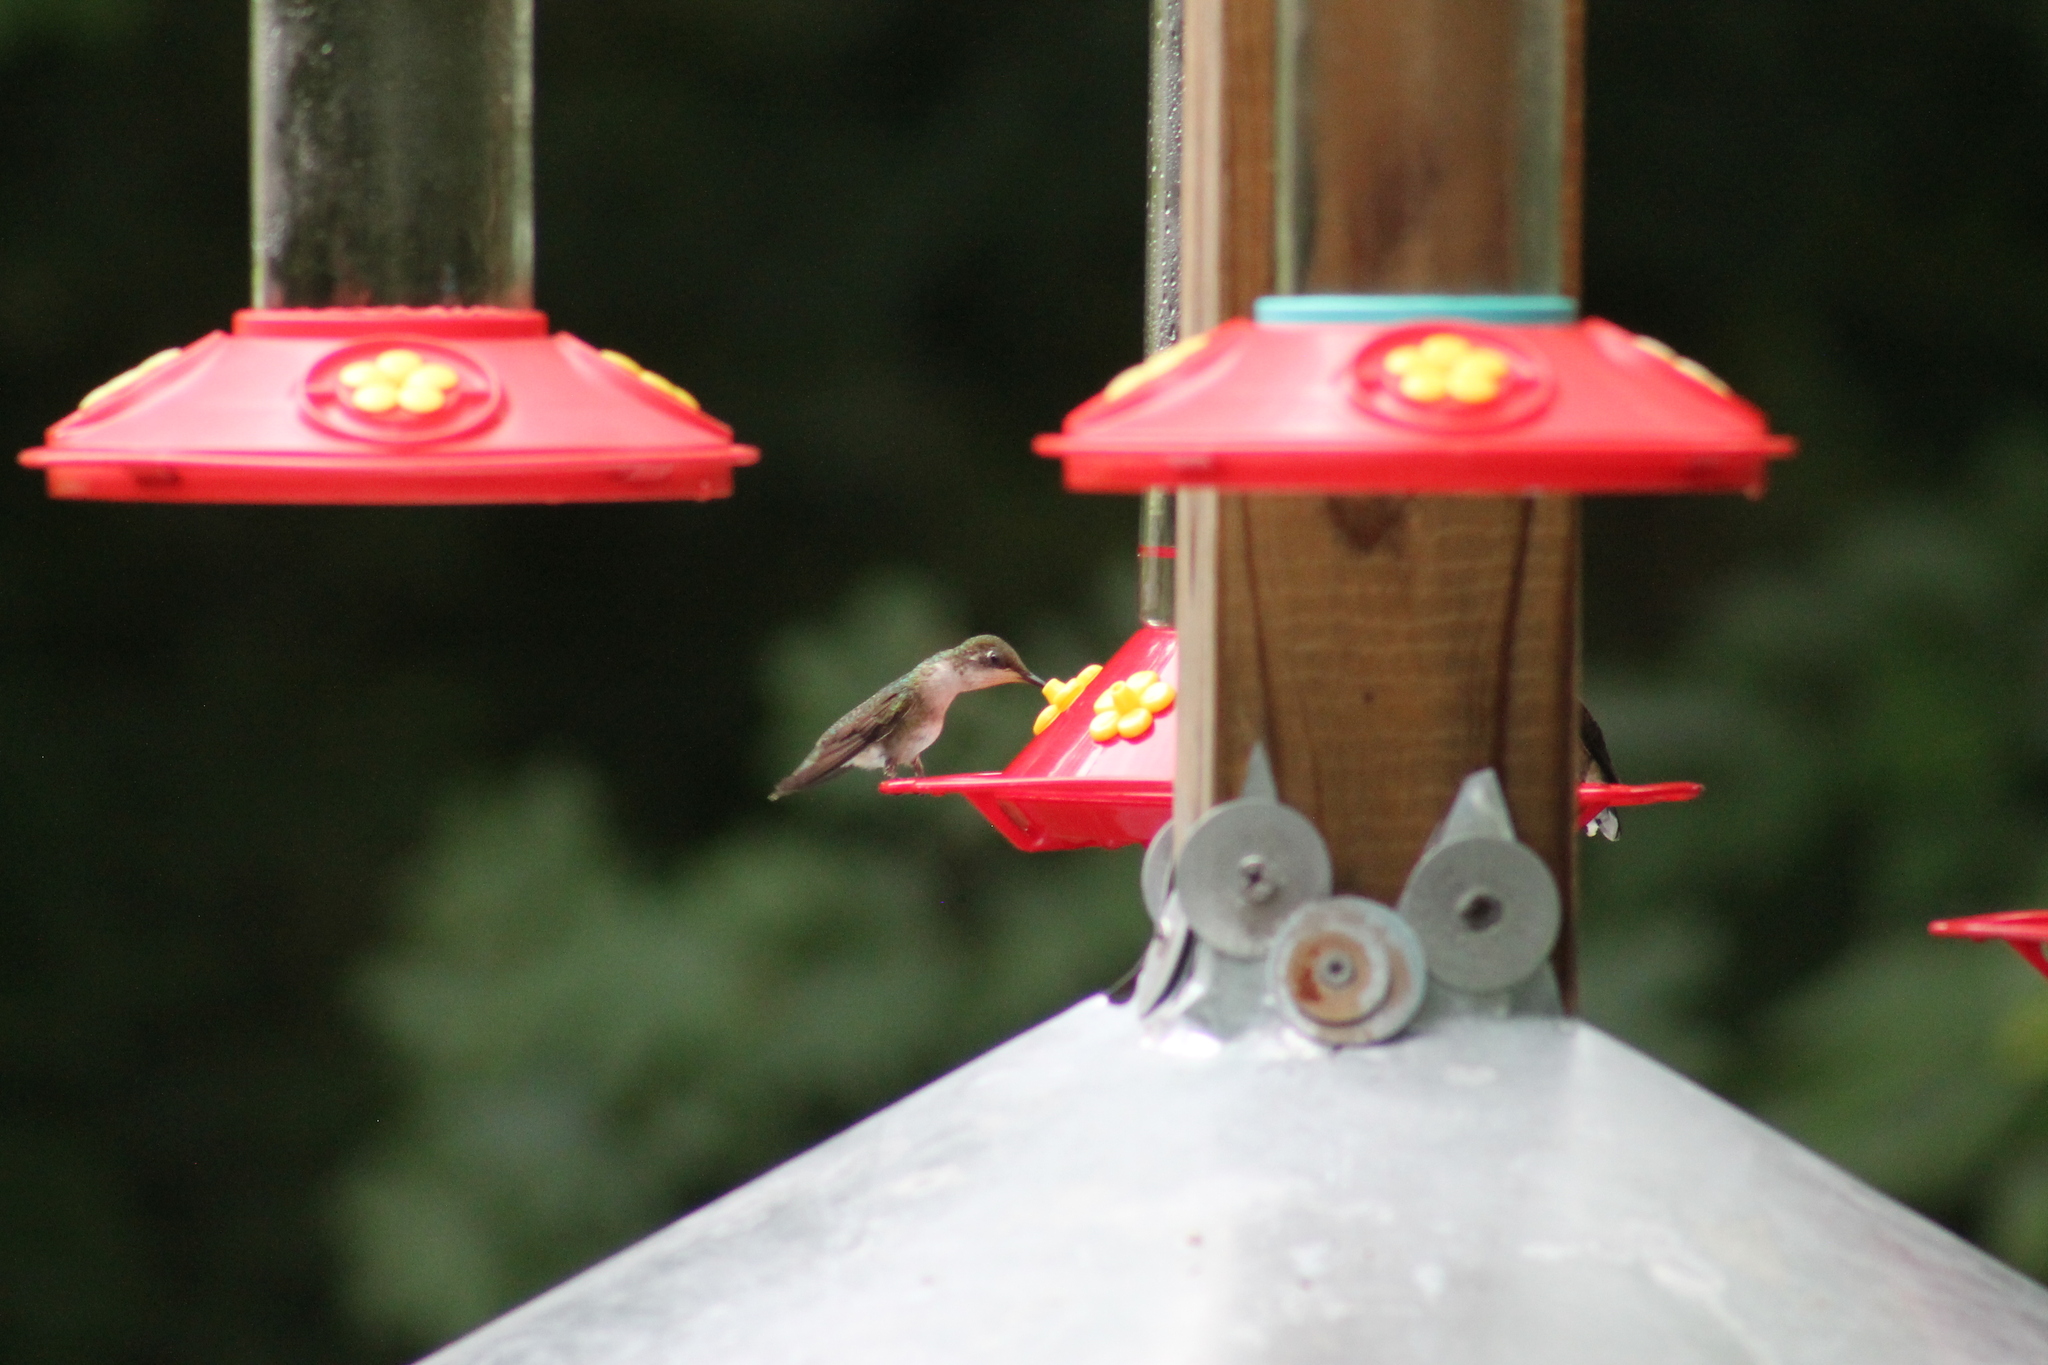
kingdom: Animalia
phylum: Chordata
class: Aves
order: Apodiformes
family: Trochilidae
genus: Archilochus
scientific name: Archilochus colubris
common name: Ruby-throated hummingbird
